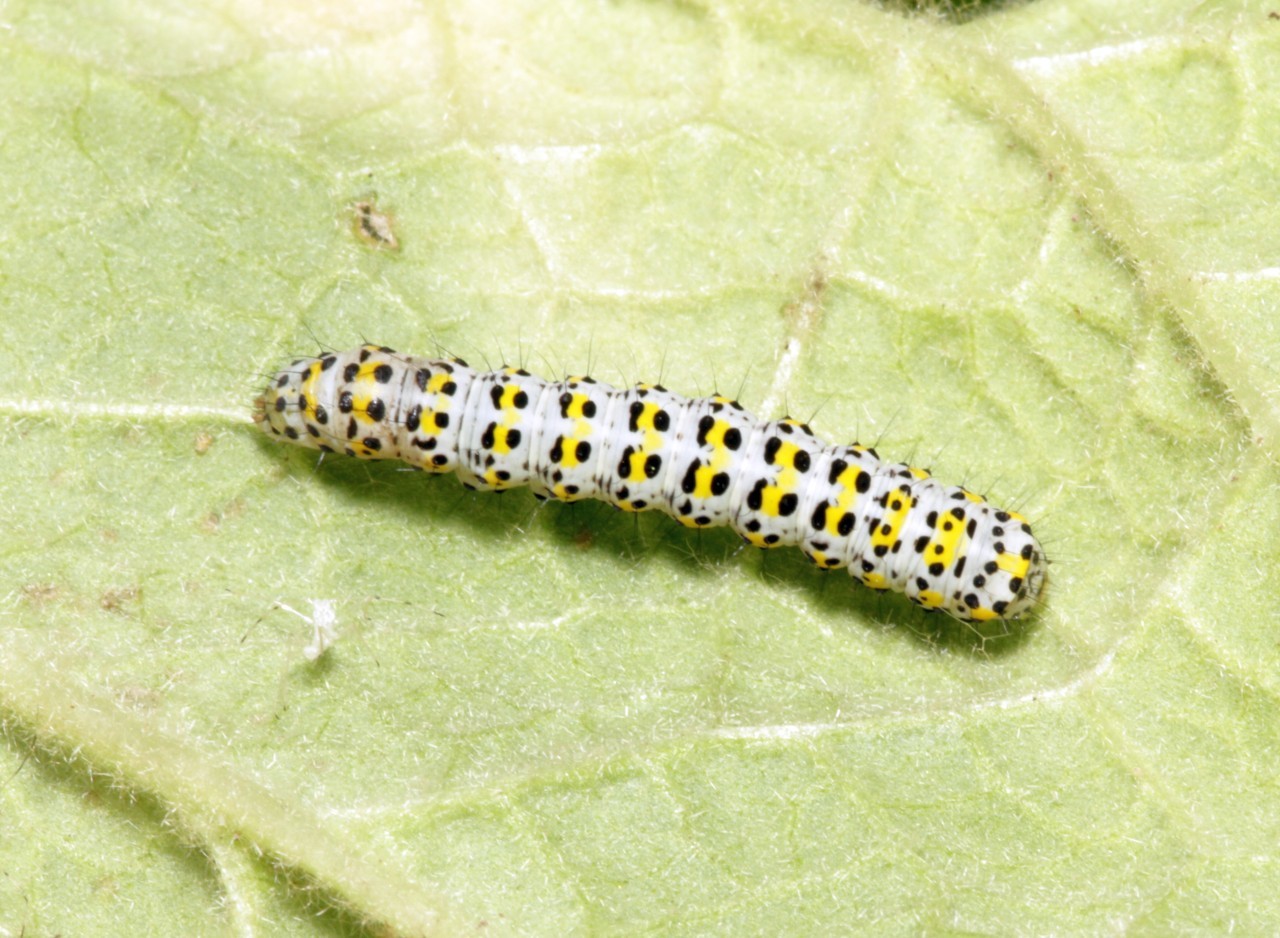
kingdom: Animalia
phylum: Arthropoda
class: Insecta
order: Lepidoptera
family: Noctuidae
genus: Cucullia
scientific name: Cucullia verbasci
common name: Mullein
